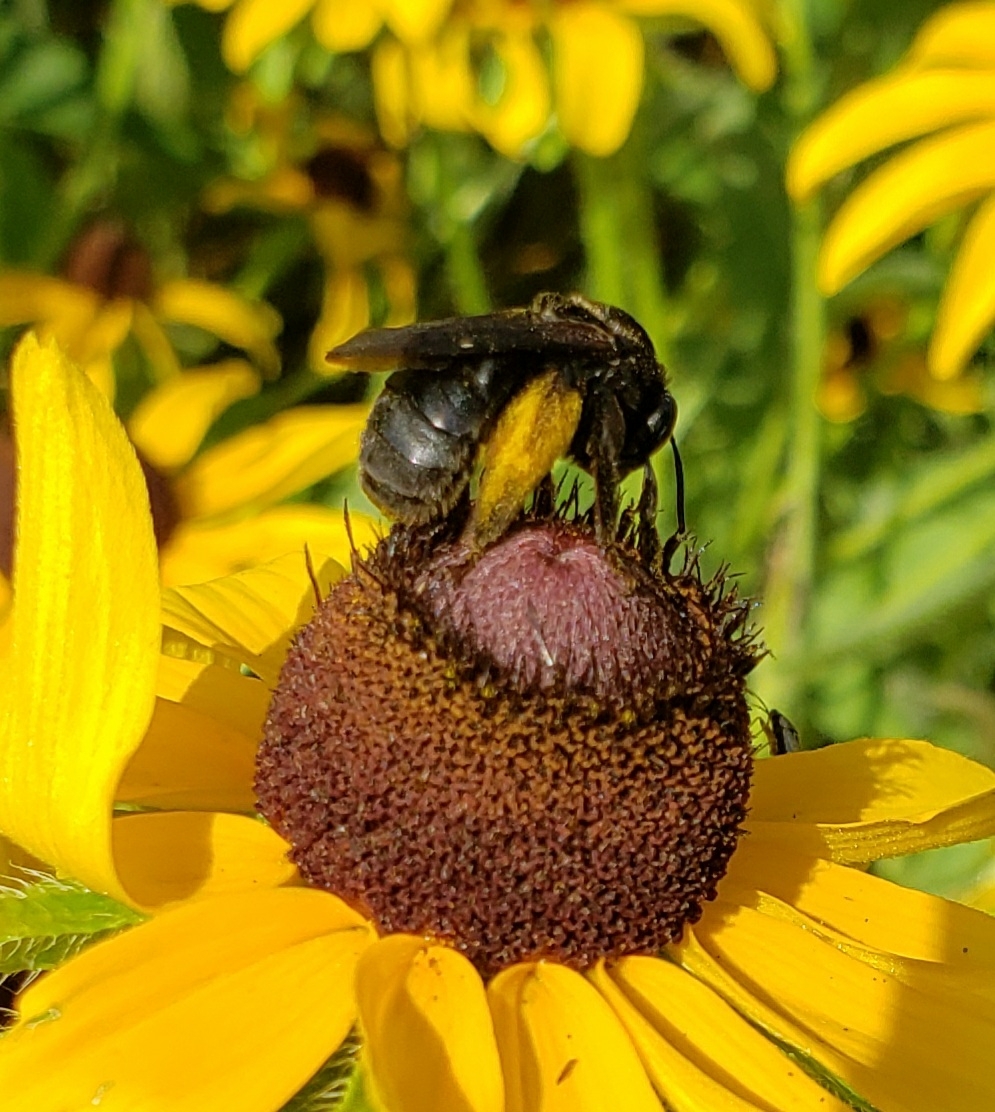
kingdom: Animalia
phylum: Arthropoda
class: Insecta
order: Hymenoptera
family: Apidae
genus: Melissodes
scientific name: Melissodes bimaculatus
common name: Two-spotted long-horned bee
